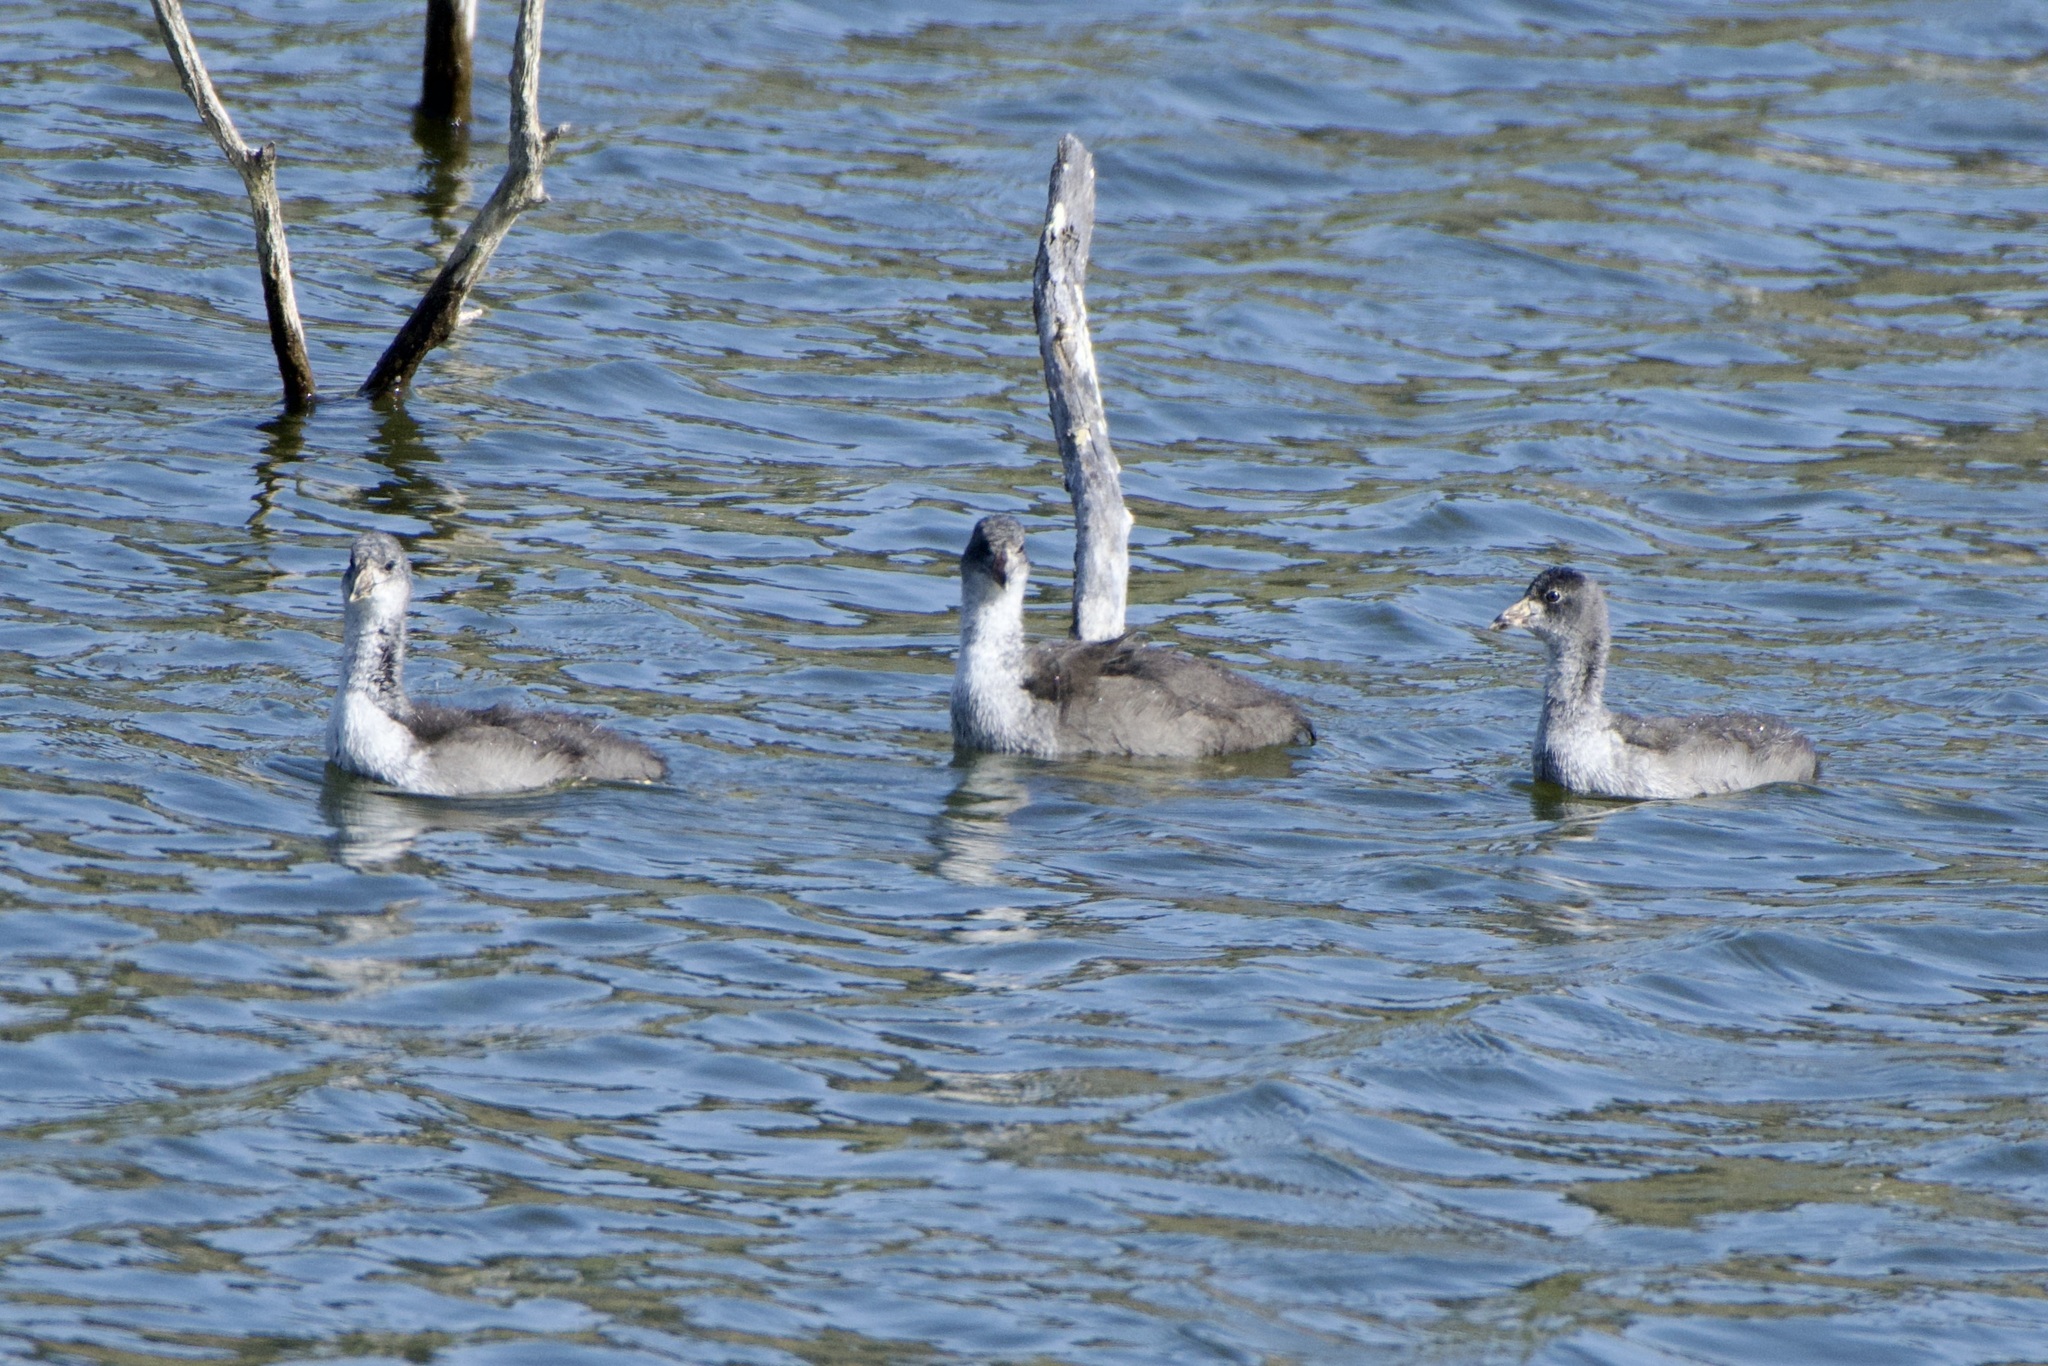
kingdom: Animalia
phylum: Chordata
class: Aves
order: Gruiformes
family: Rallidae
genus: Fulica
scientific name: Fulica americana
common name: American coot
